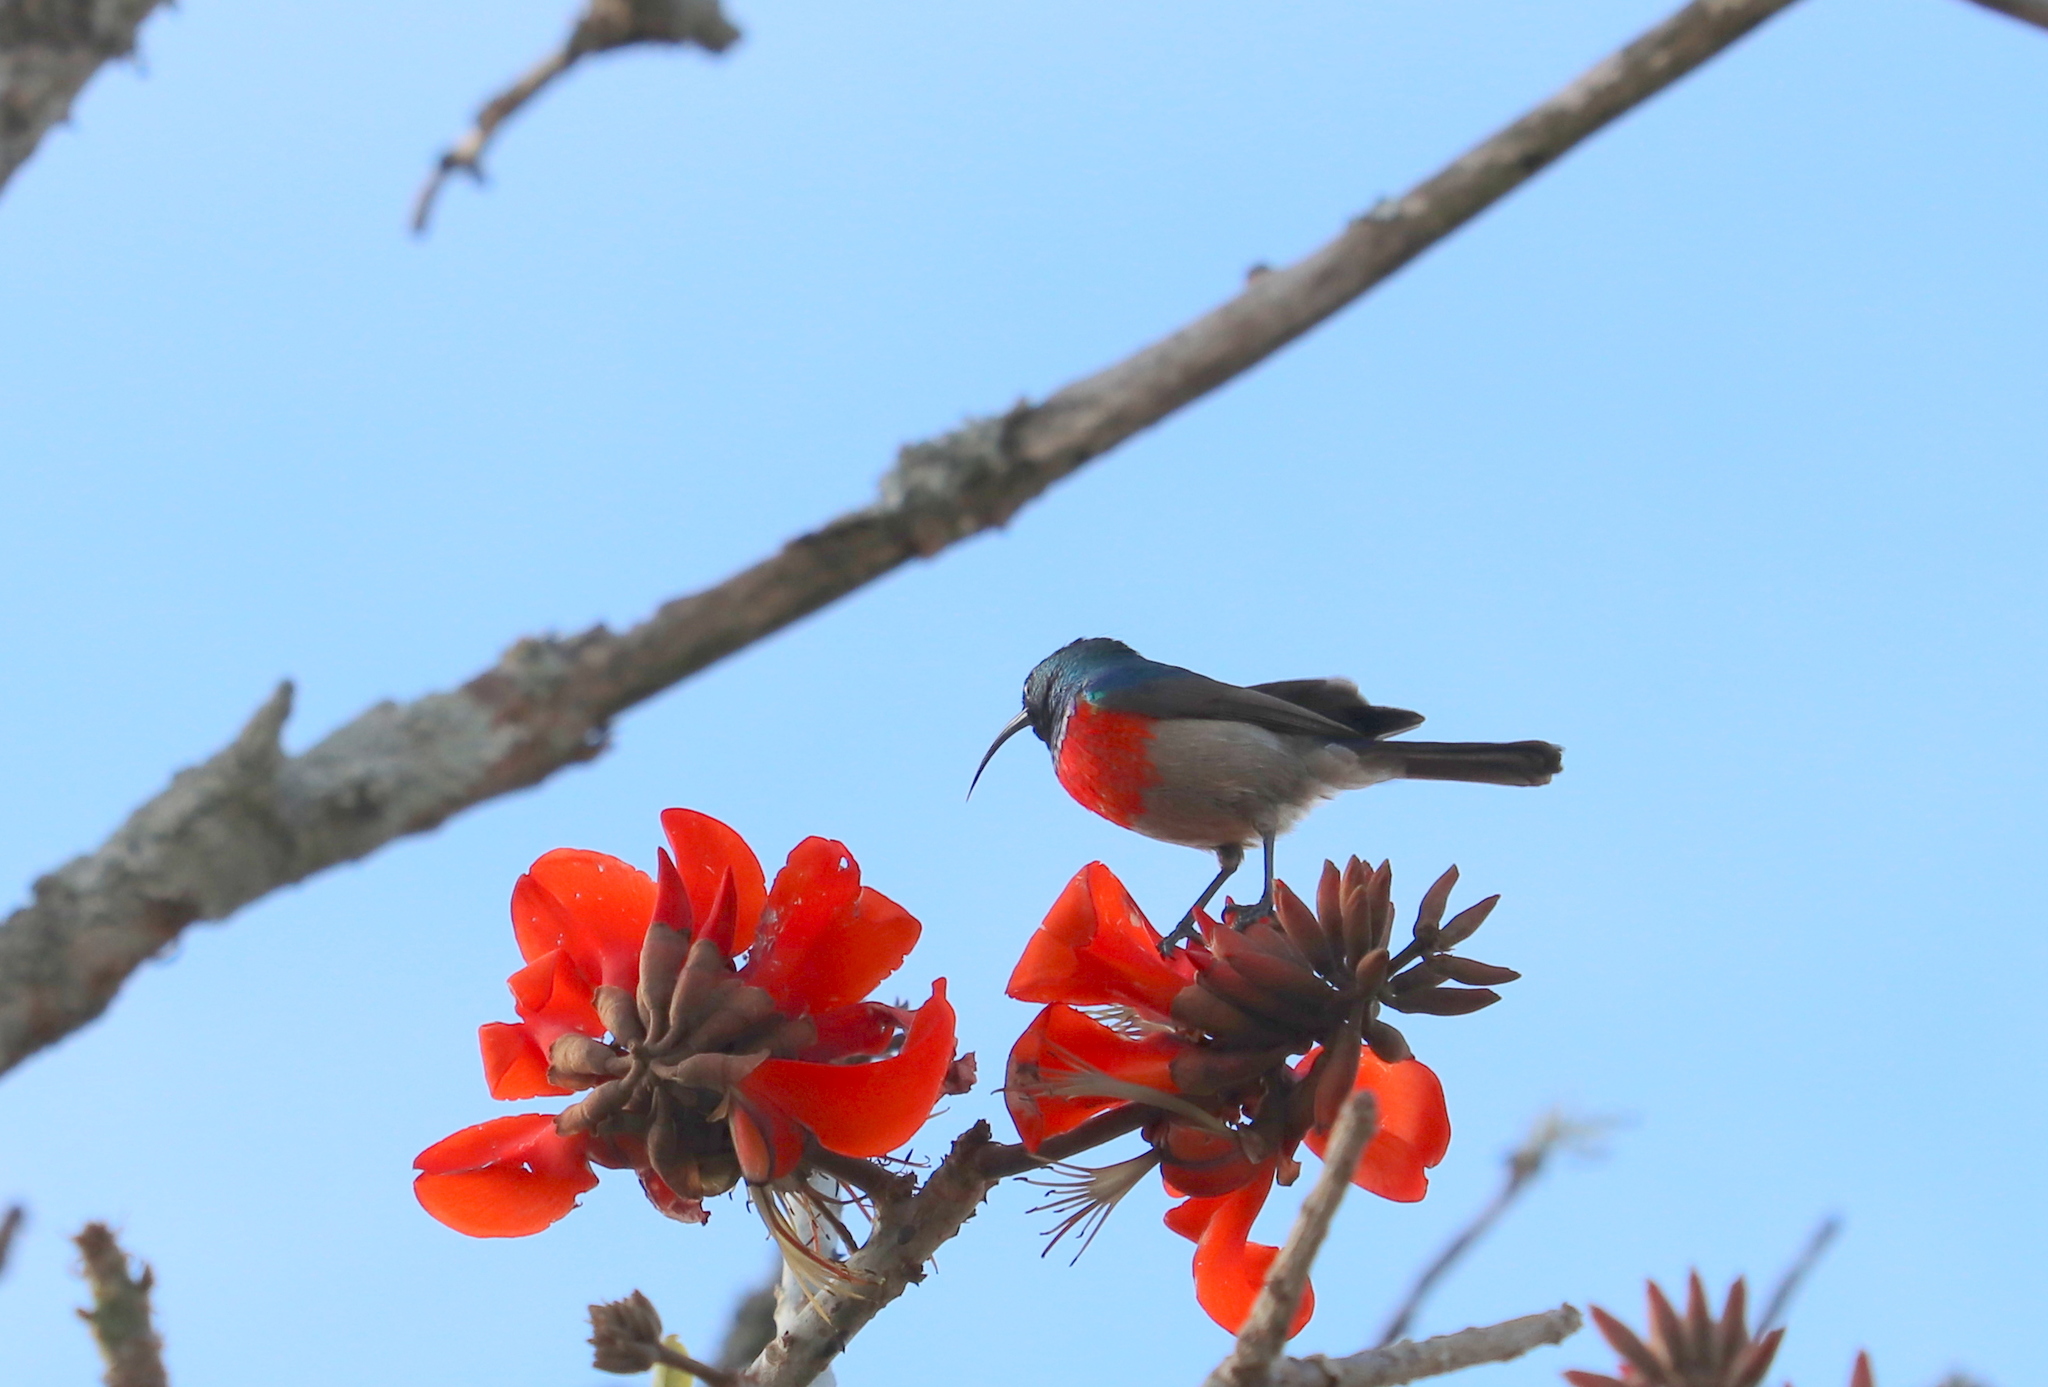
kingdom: Animalia
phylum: Chordata
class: Aves
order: Passeriformes
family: Nectariniidae
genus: Cinnyris
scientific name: Cinnyris afer
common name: Greater double-collared sunbird
